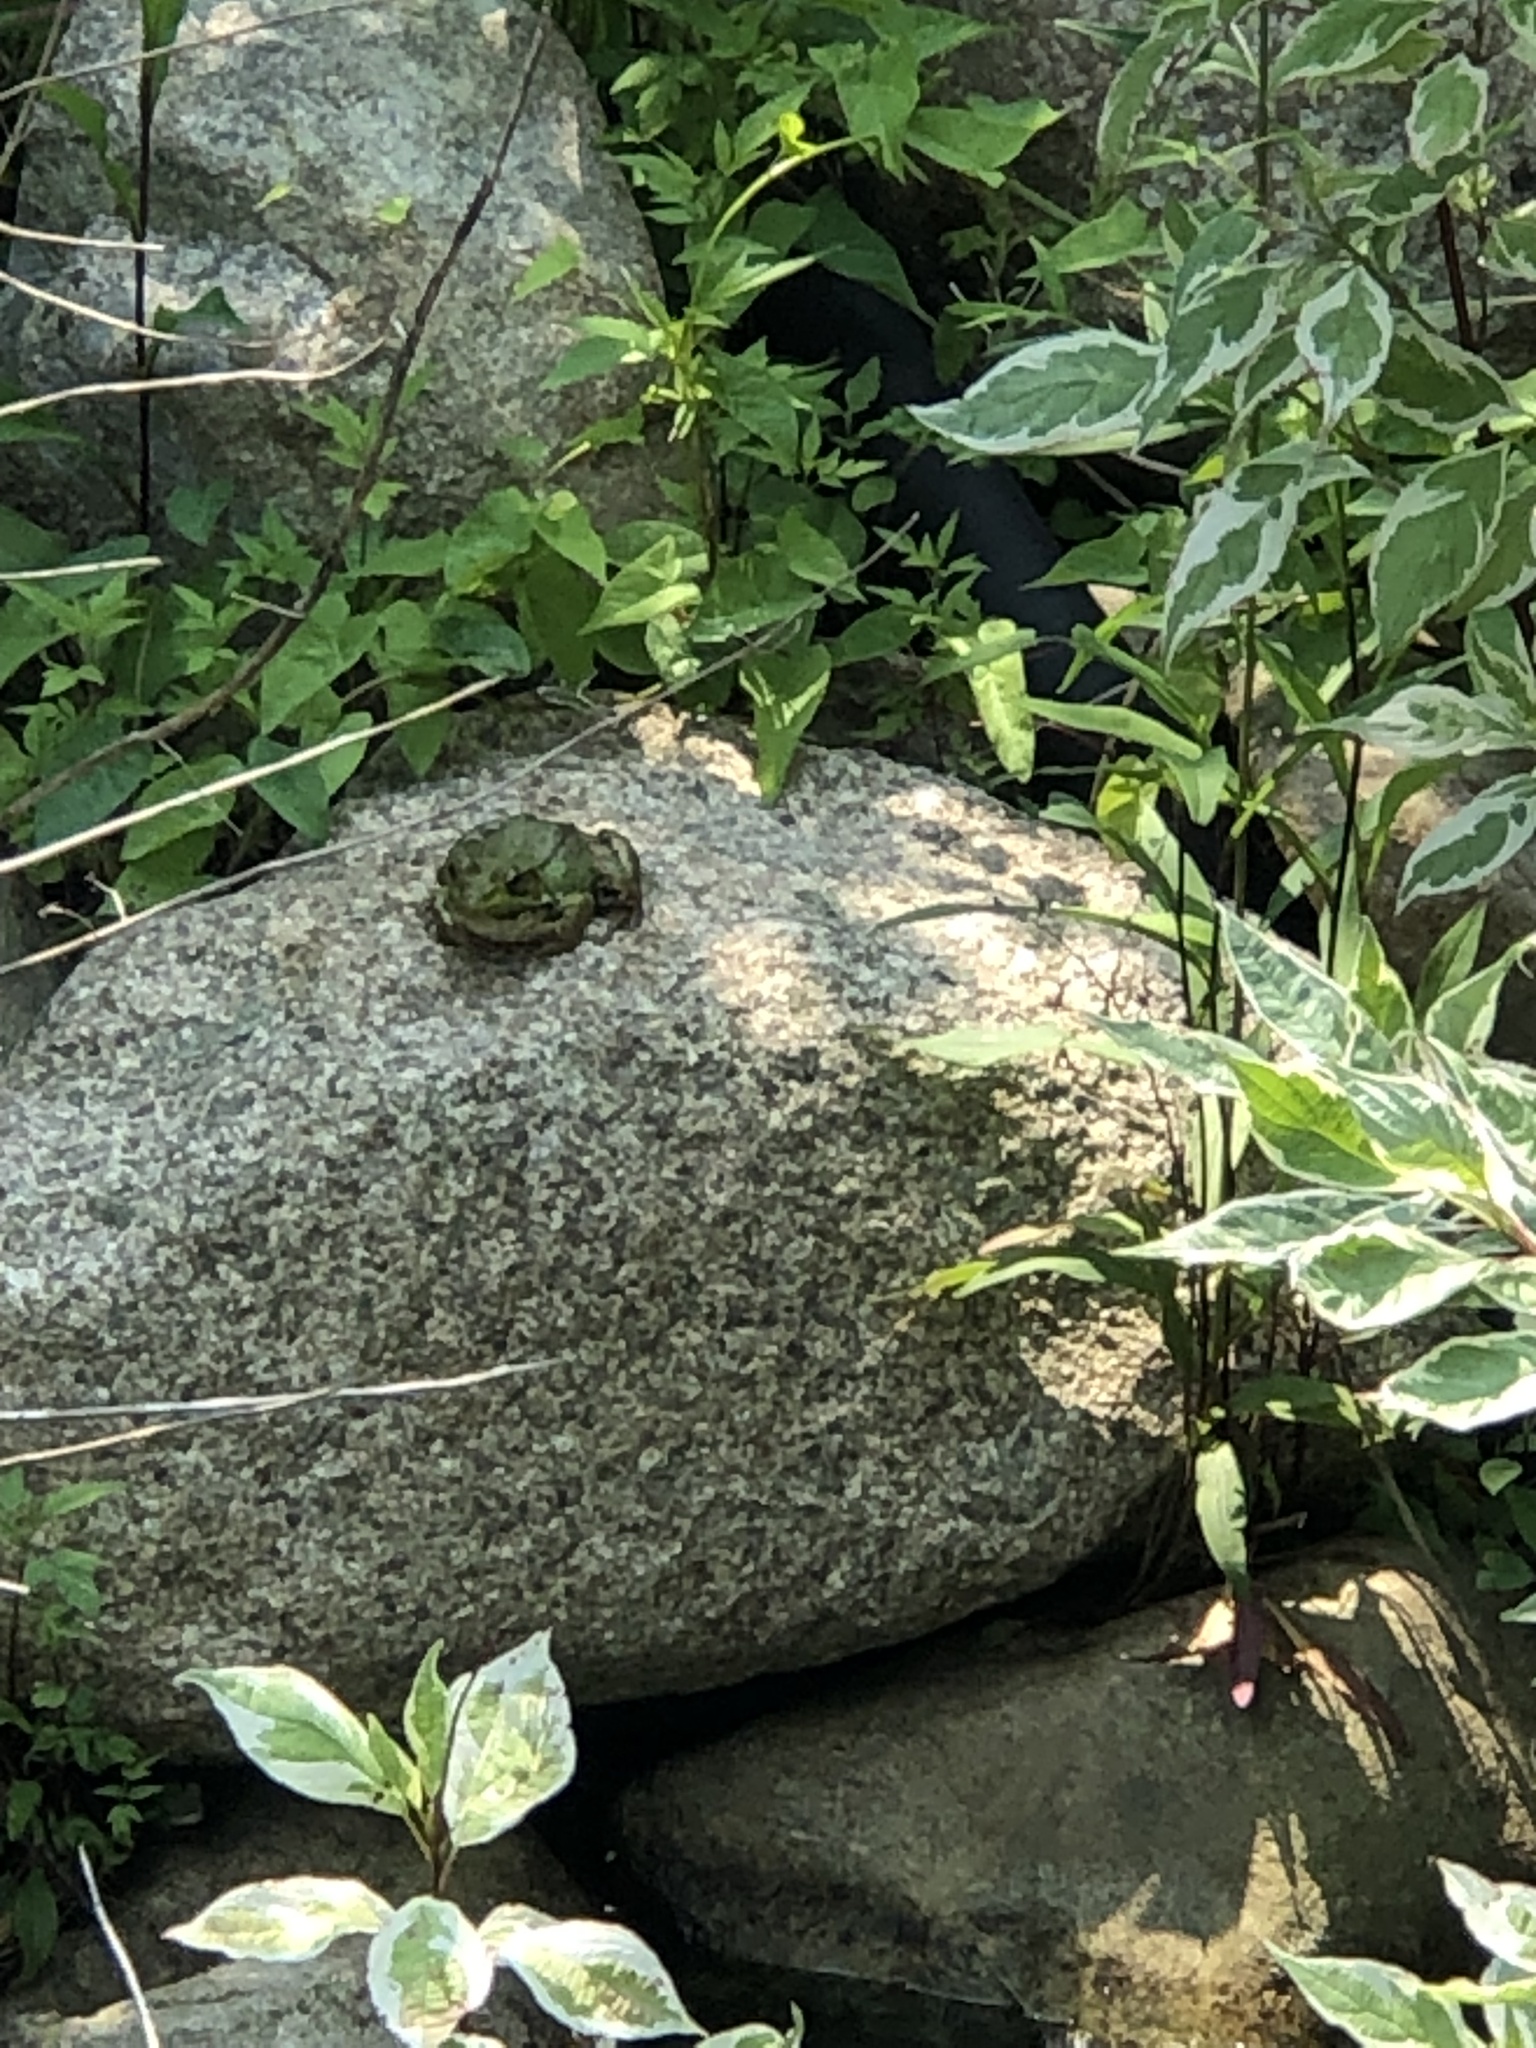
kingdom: Animalia
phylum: Chordata
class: Amphibia
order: Anura
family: Ranidae
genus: Lithobates
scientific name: Lithobates clamitans
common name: Green frog
